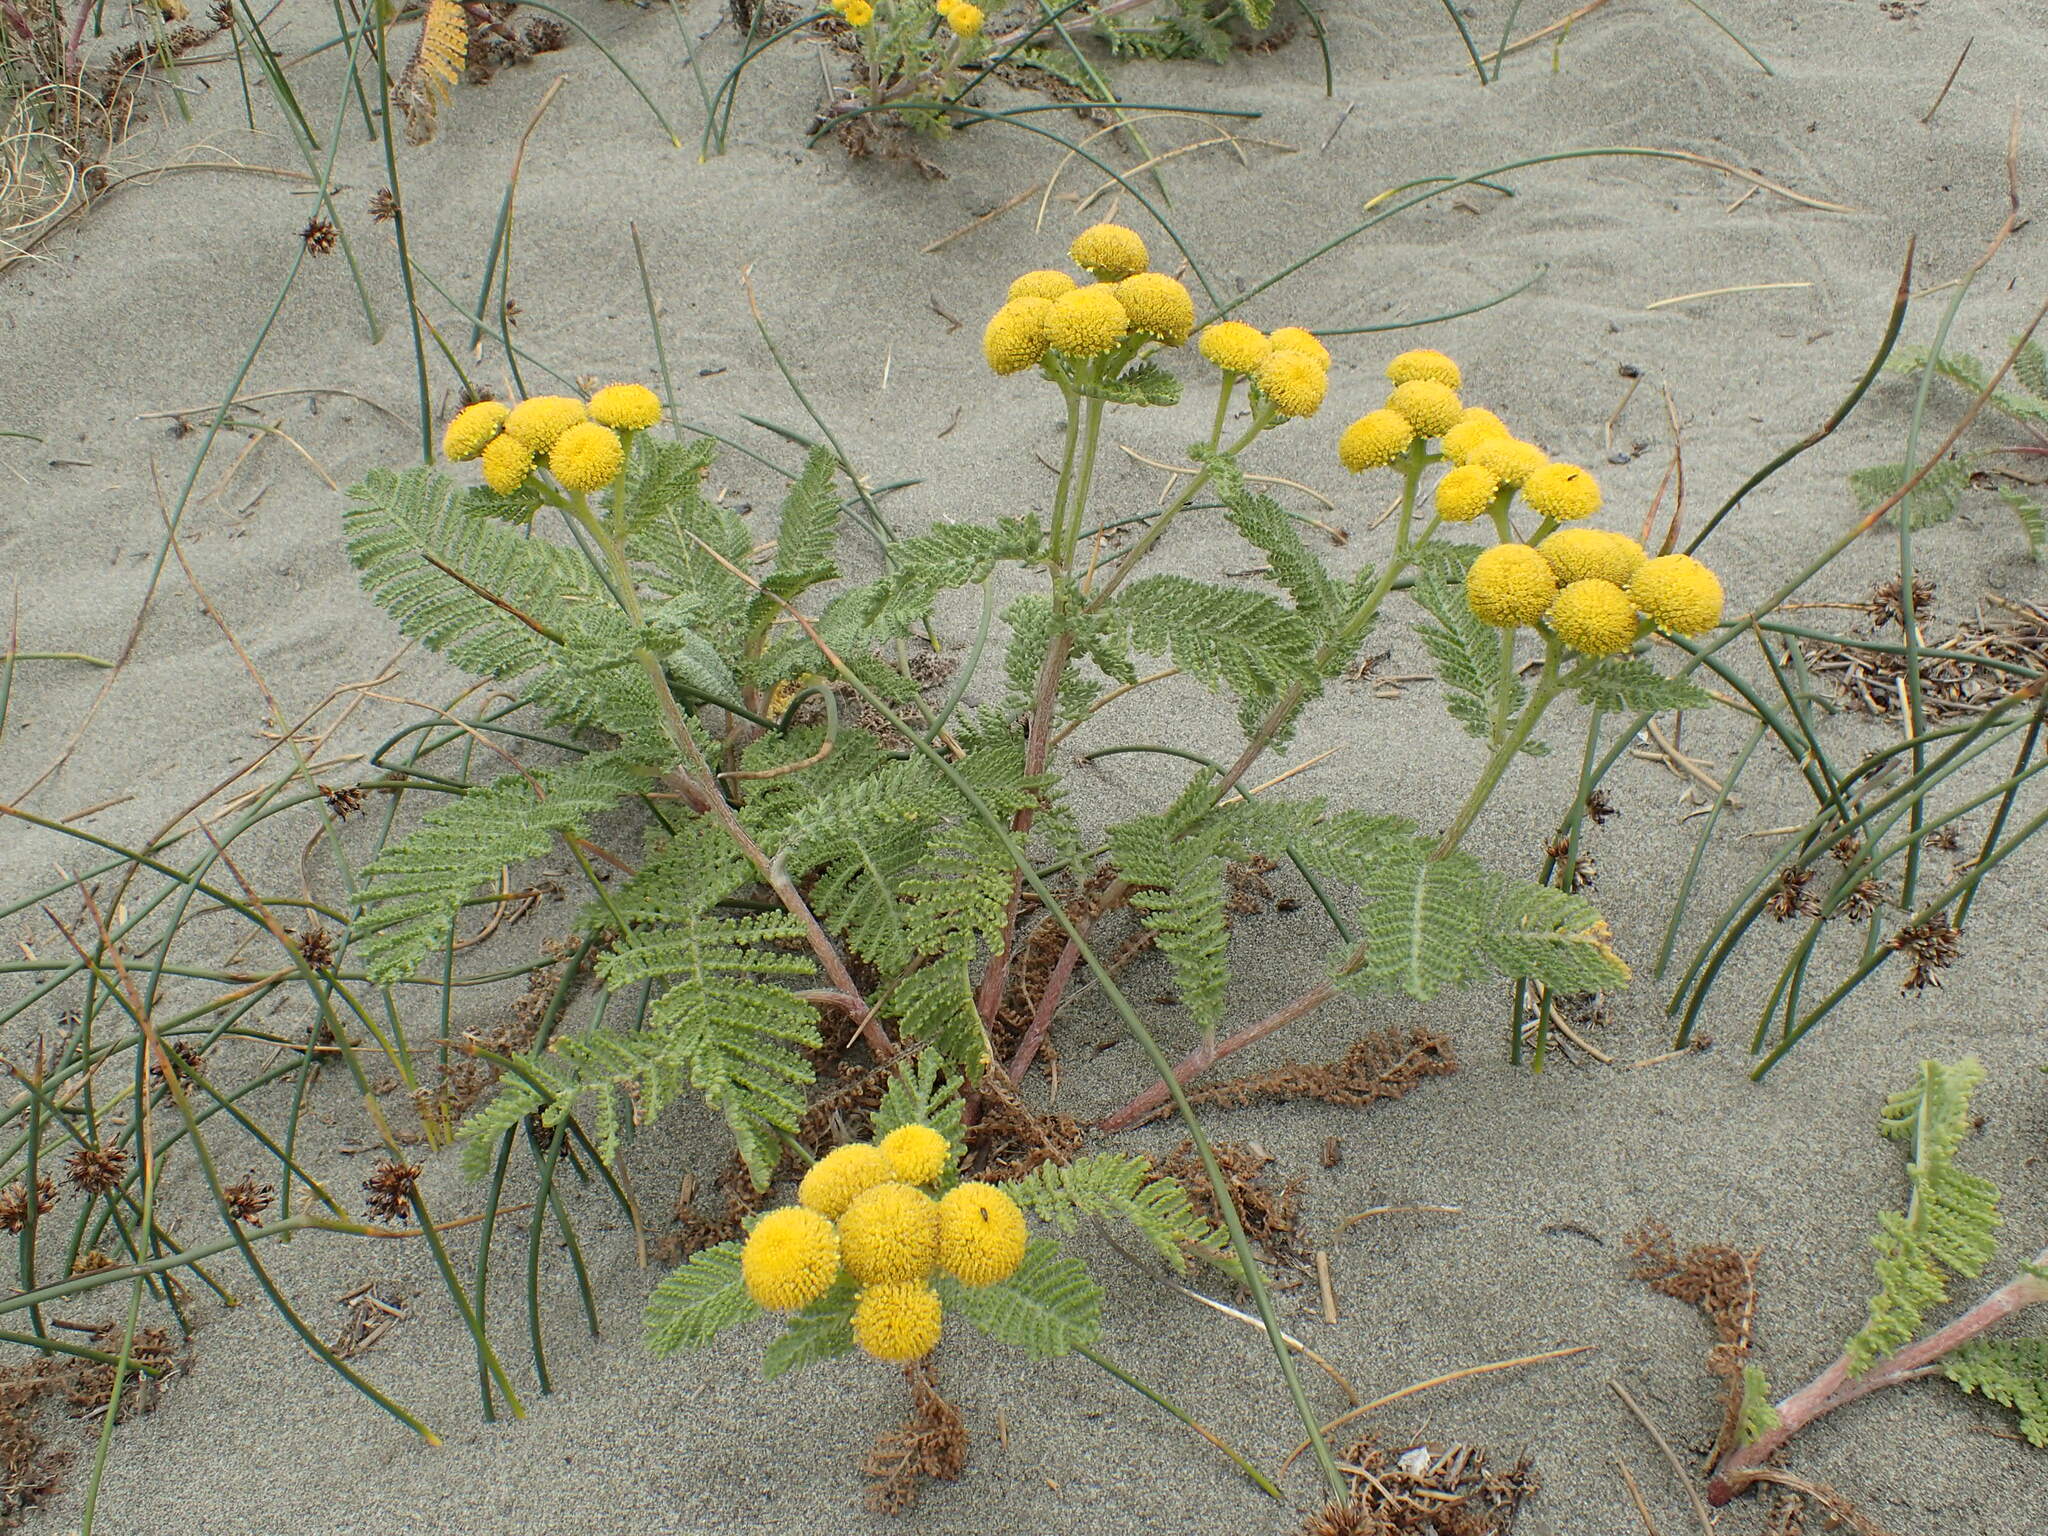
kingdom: Plantae
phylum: Tracheophyta
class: Magnoliopsida
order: Asterales
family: Asteraceae
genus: Tanacetum
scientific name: Tanacetum bipinnatum
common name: Dwarf tansy
